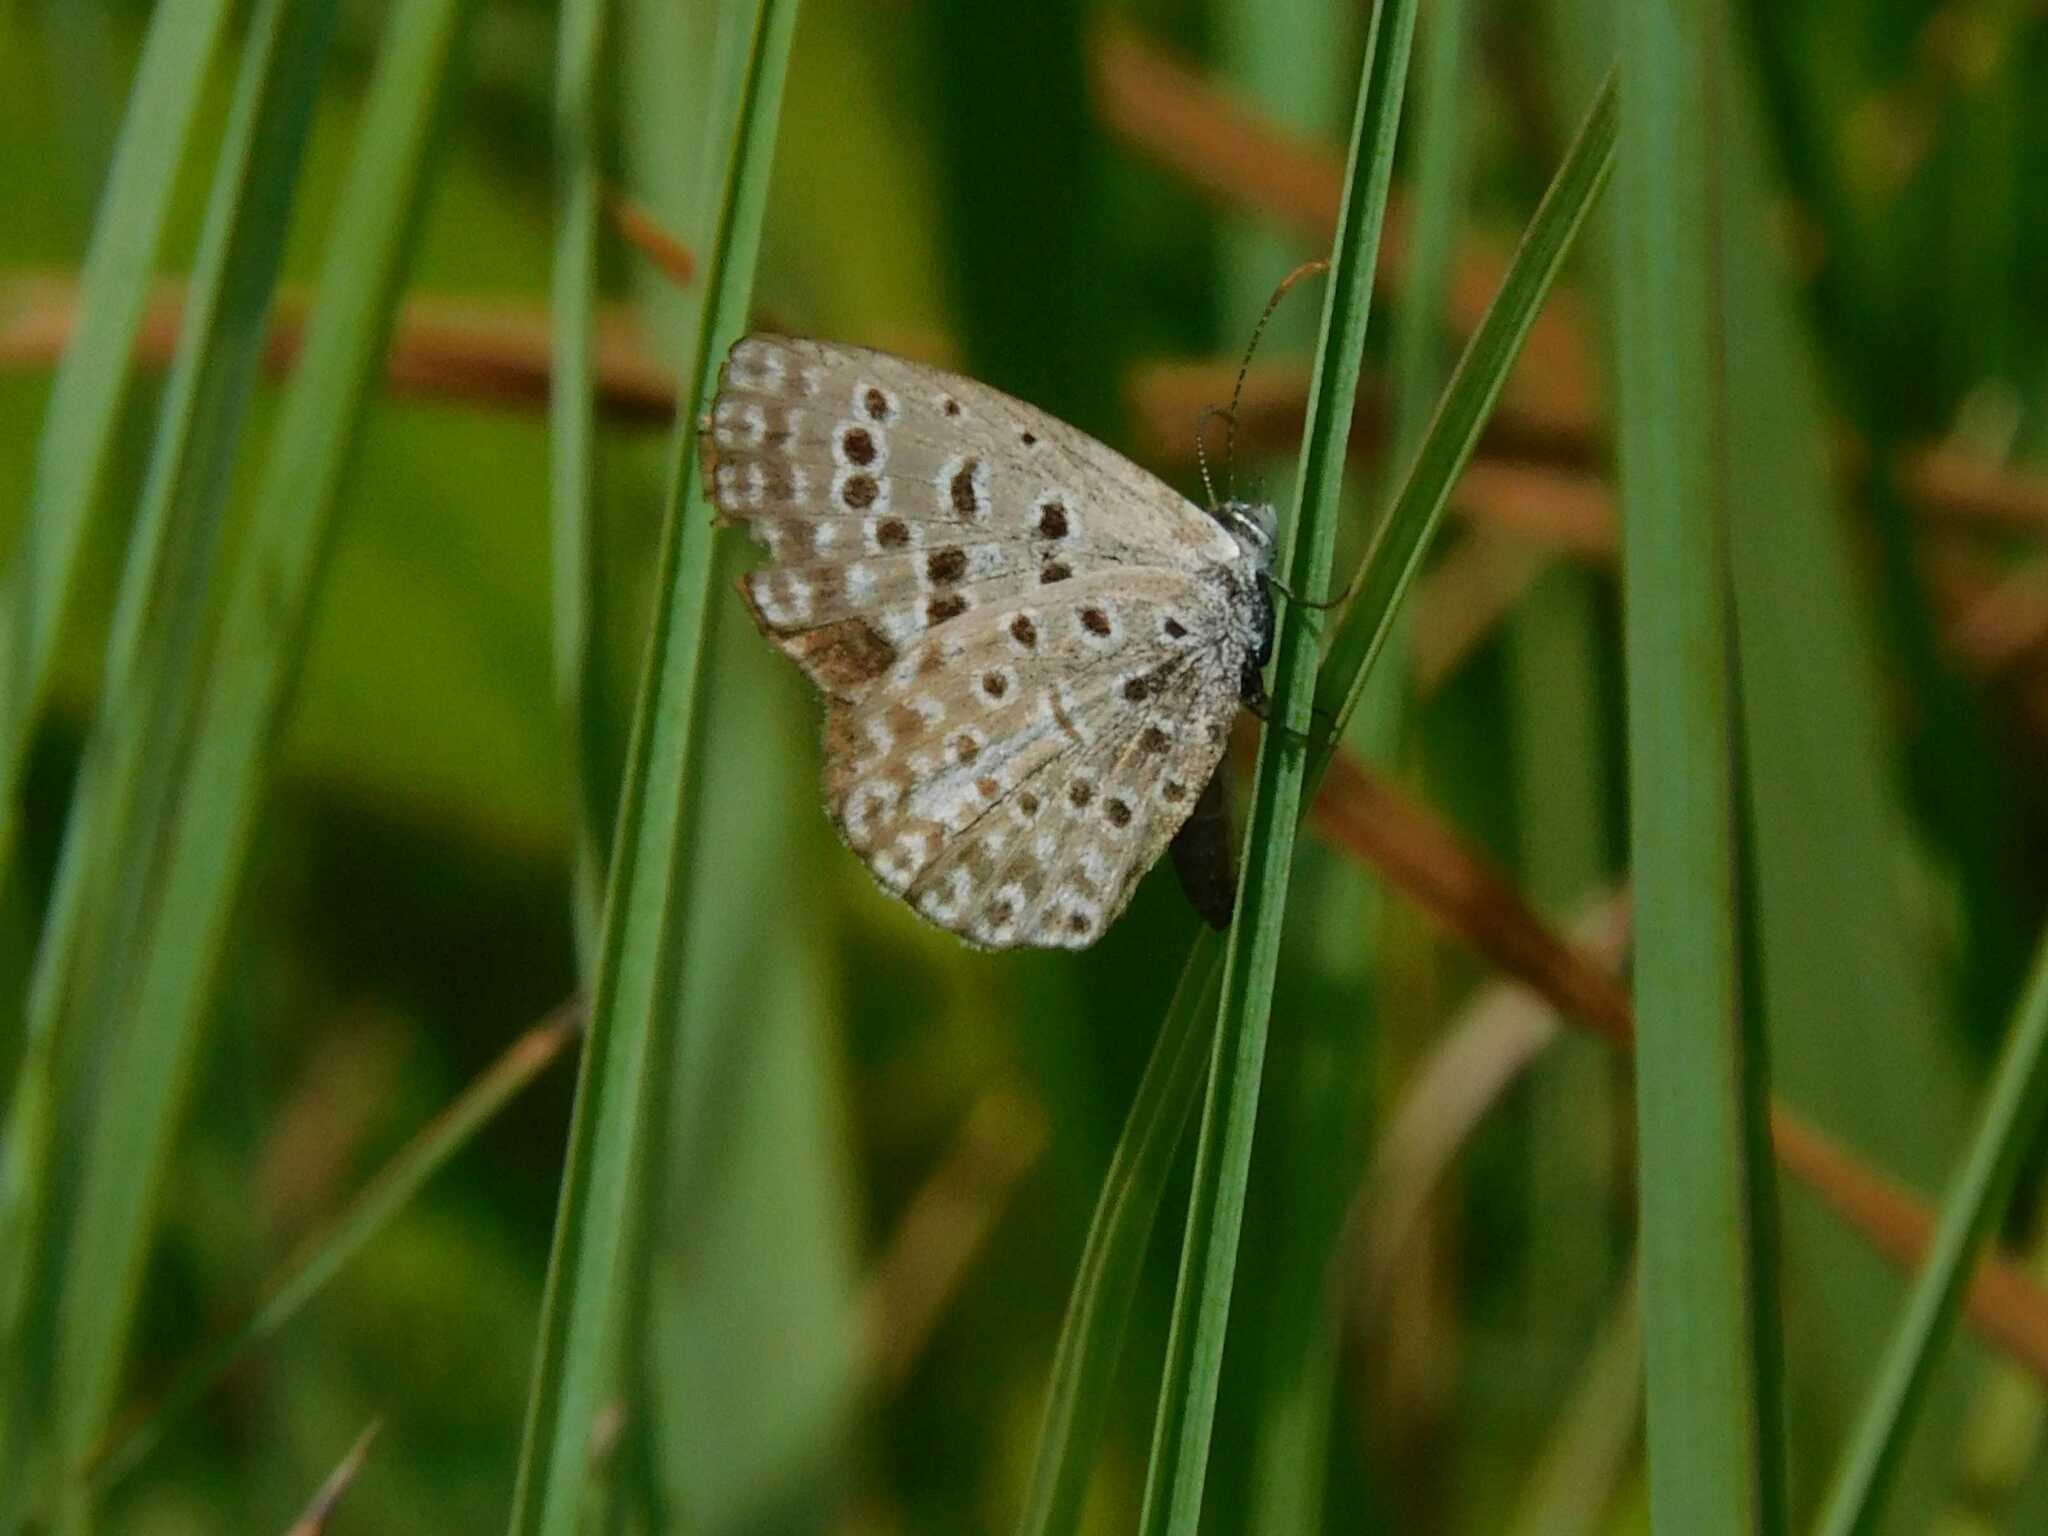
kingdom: Animalia
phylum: Arthropoda
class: Insecta
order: Lepidoptera
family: Lycaenidae
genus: Actizera
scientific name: Actizera lucida
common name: Rayed blue
